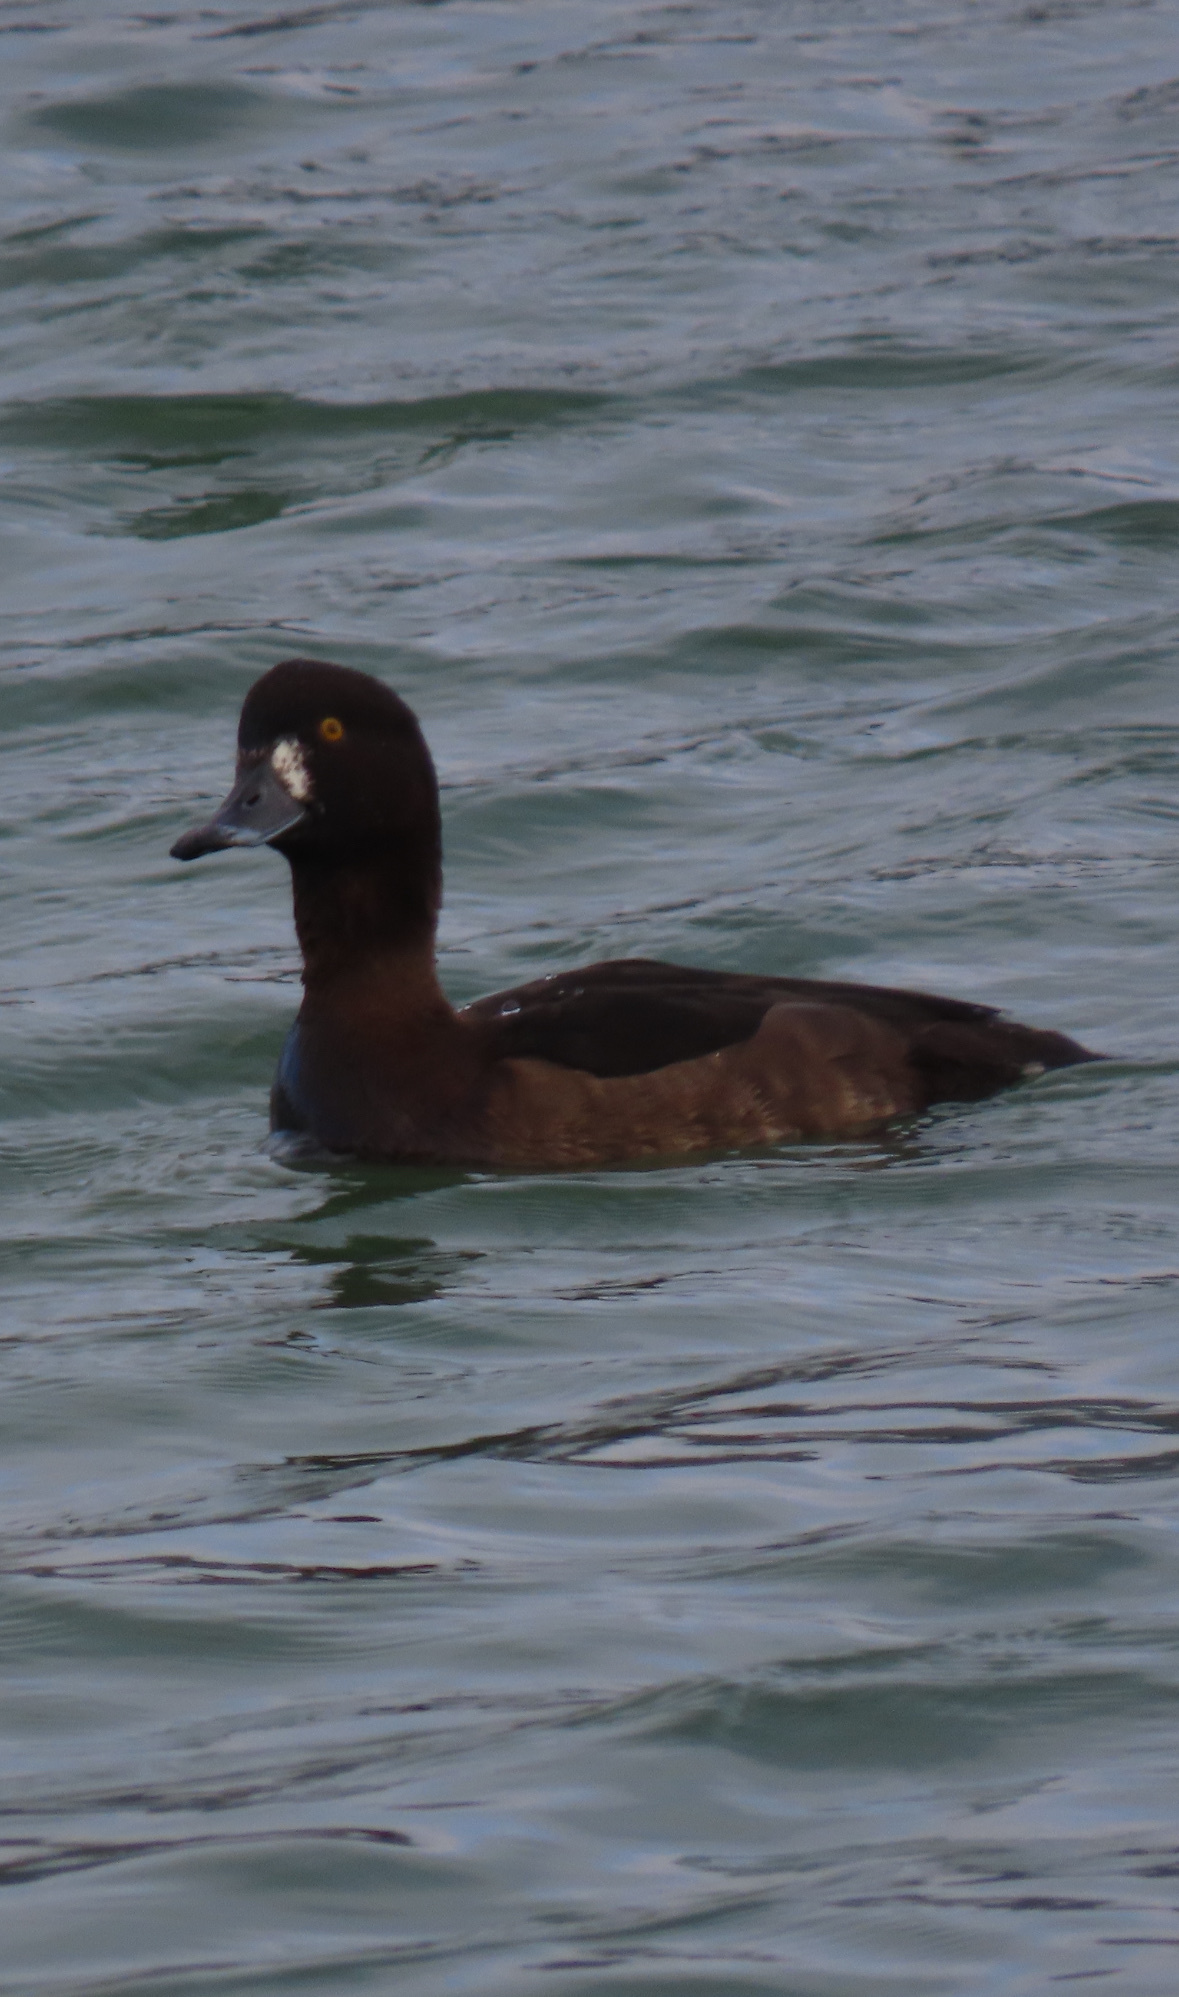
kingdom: Animalia
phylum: Chordata
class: Aves
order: Anseriformes
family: Anatidae
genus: Aythya
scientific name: Aythya fuligula
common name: Tufted duck
